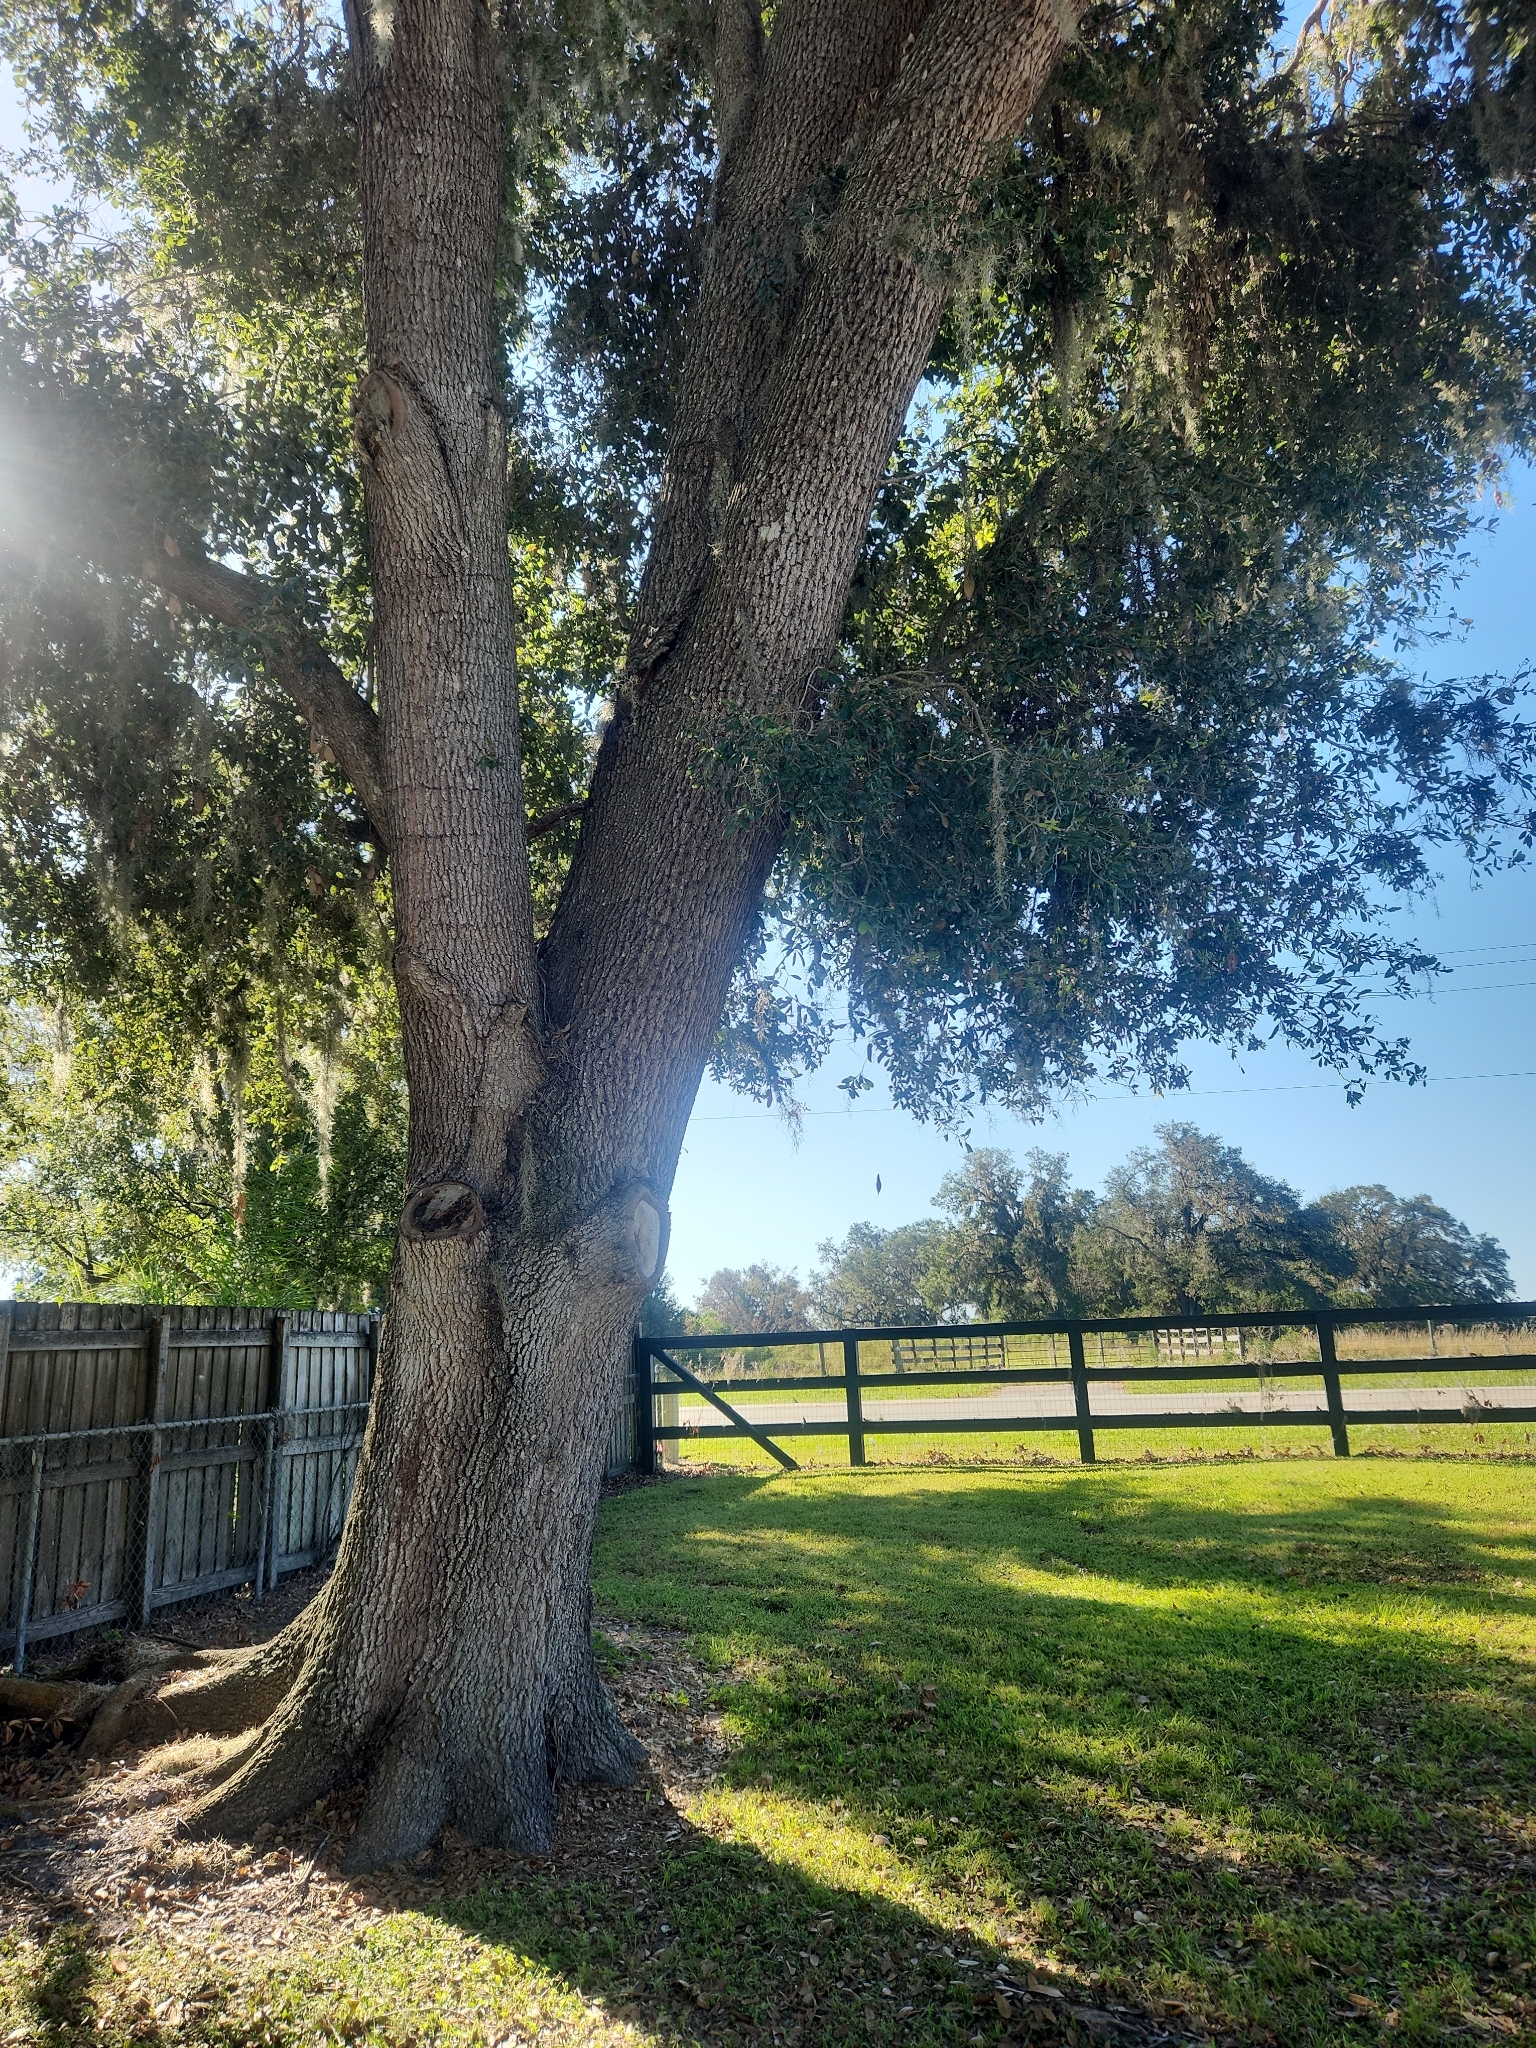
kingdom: Plantae
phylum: Tracheophyta
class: Magnoliopsida
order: Fagales
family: Fagaceae
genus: Quercus
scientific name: Quercus virginiana
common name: Southern live oak
